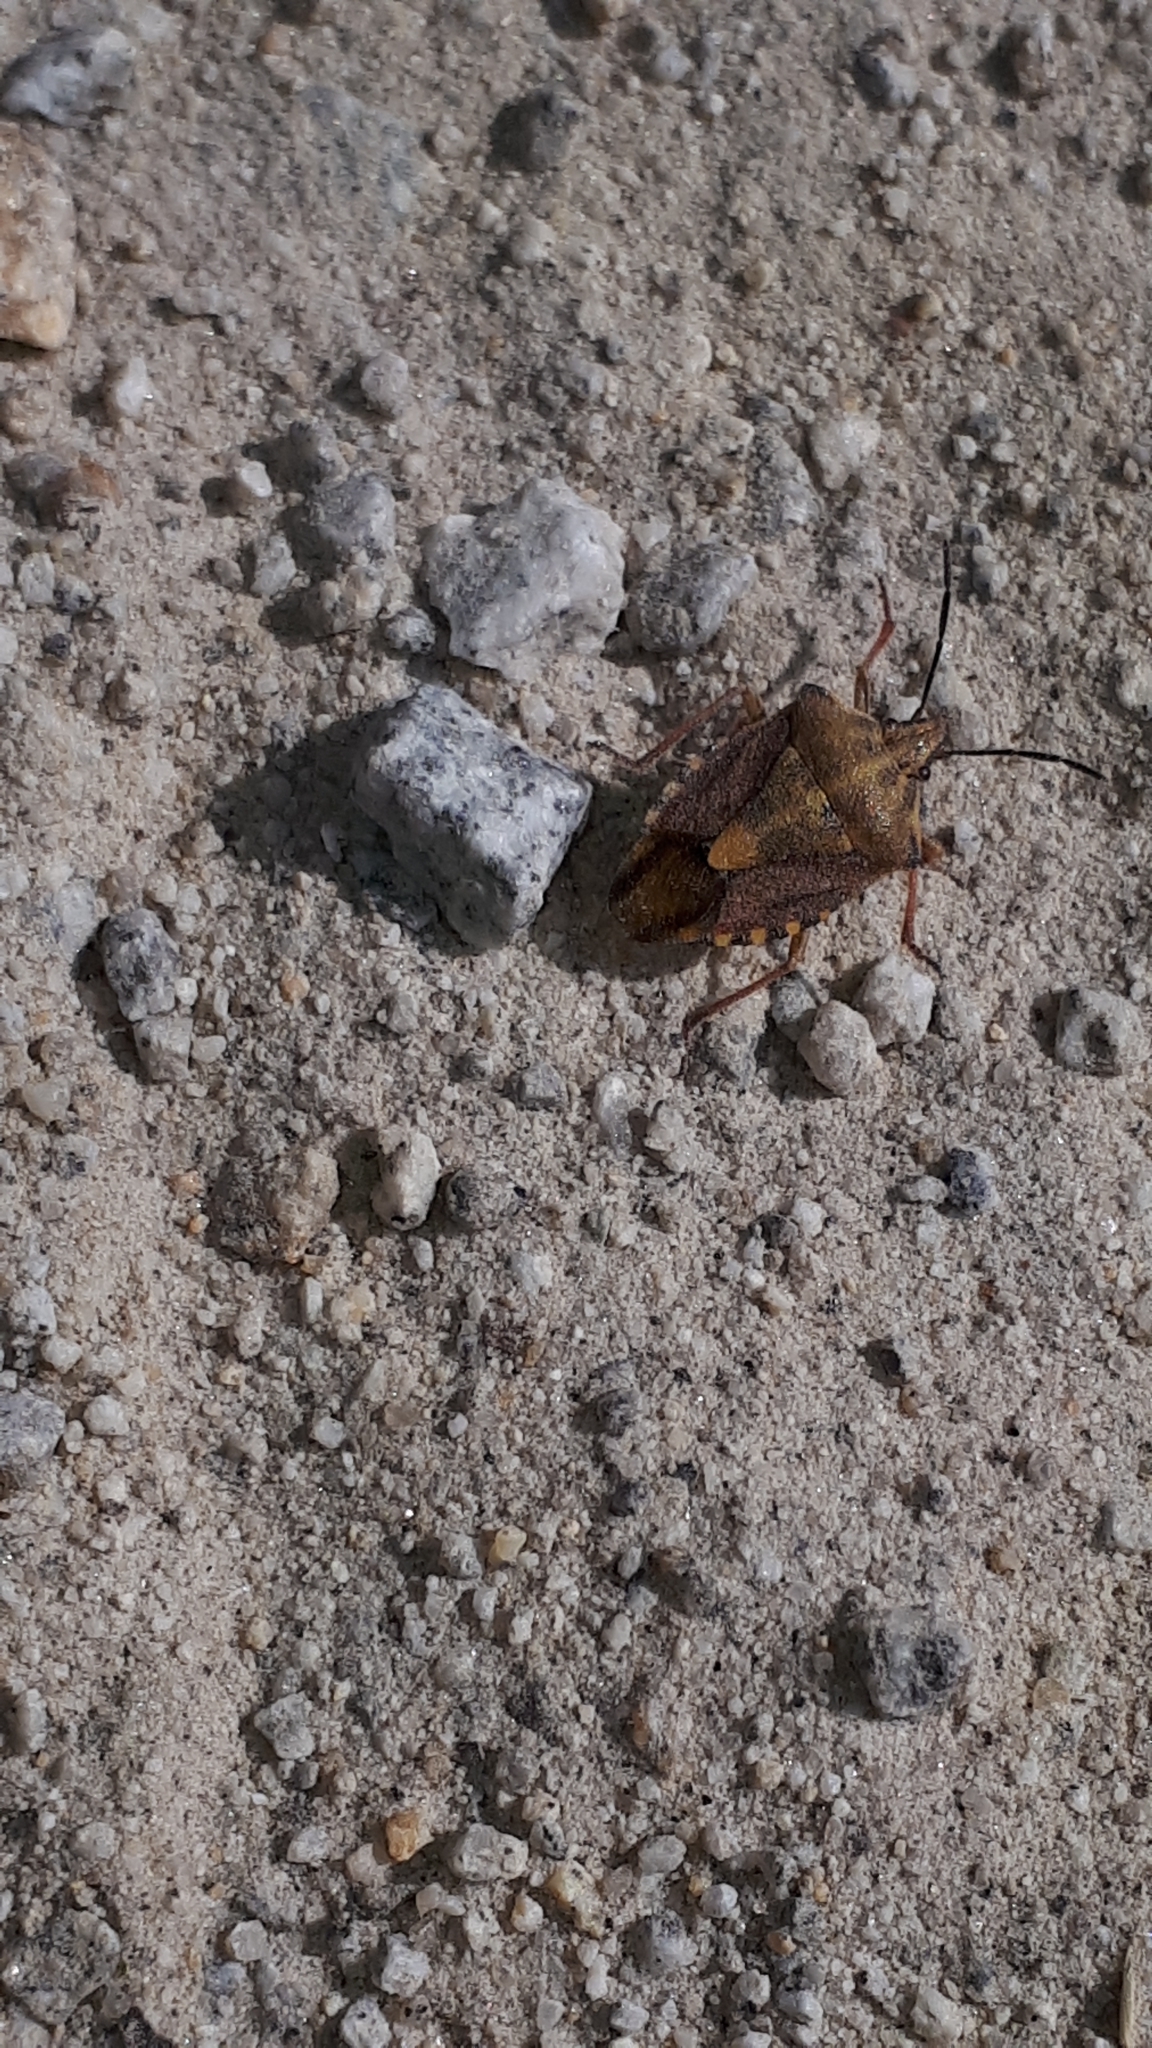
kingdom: Animalia
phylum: Arthropoda
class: Insecta
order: Hemiptera
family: Pentatomidae
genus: Carpocoris
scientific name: Carpocoris purpureipennis
